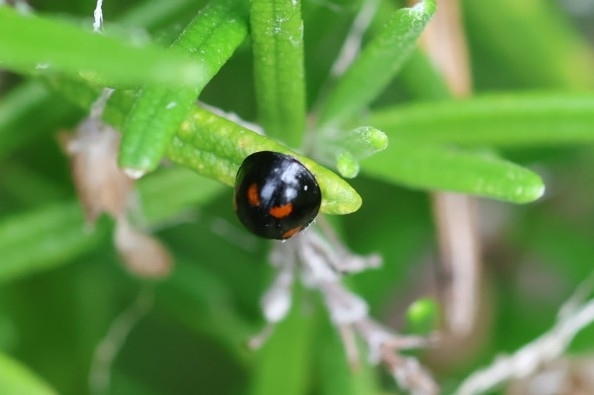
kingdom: Animalia
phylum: Arthropoda
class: Insecta
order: Coleoptera
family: Coccinellidae
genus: Brumus
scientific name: Brumus quadripustulatus
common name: Ladybird beetle
